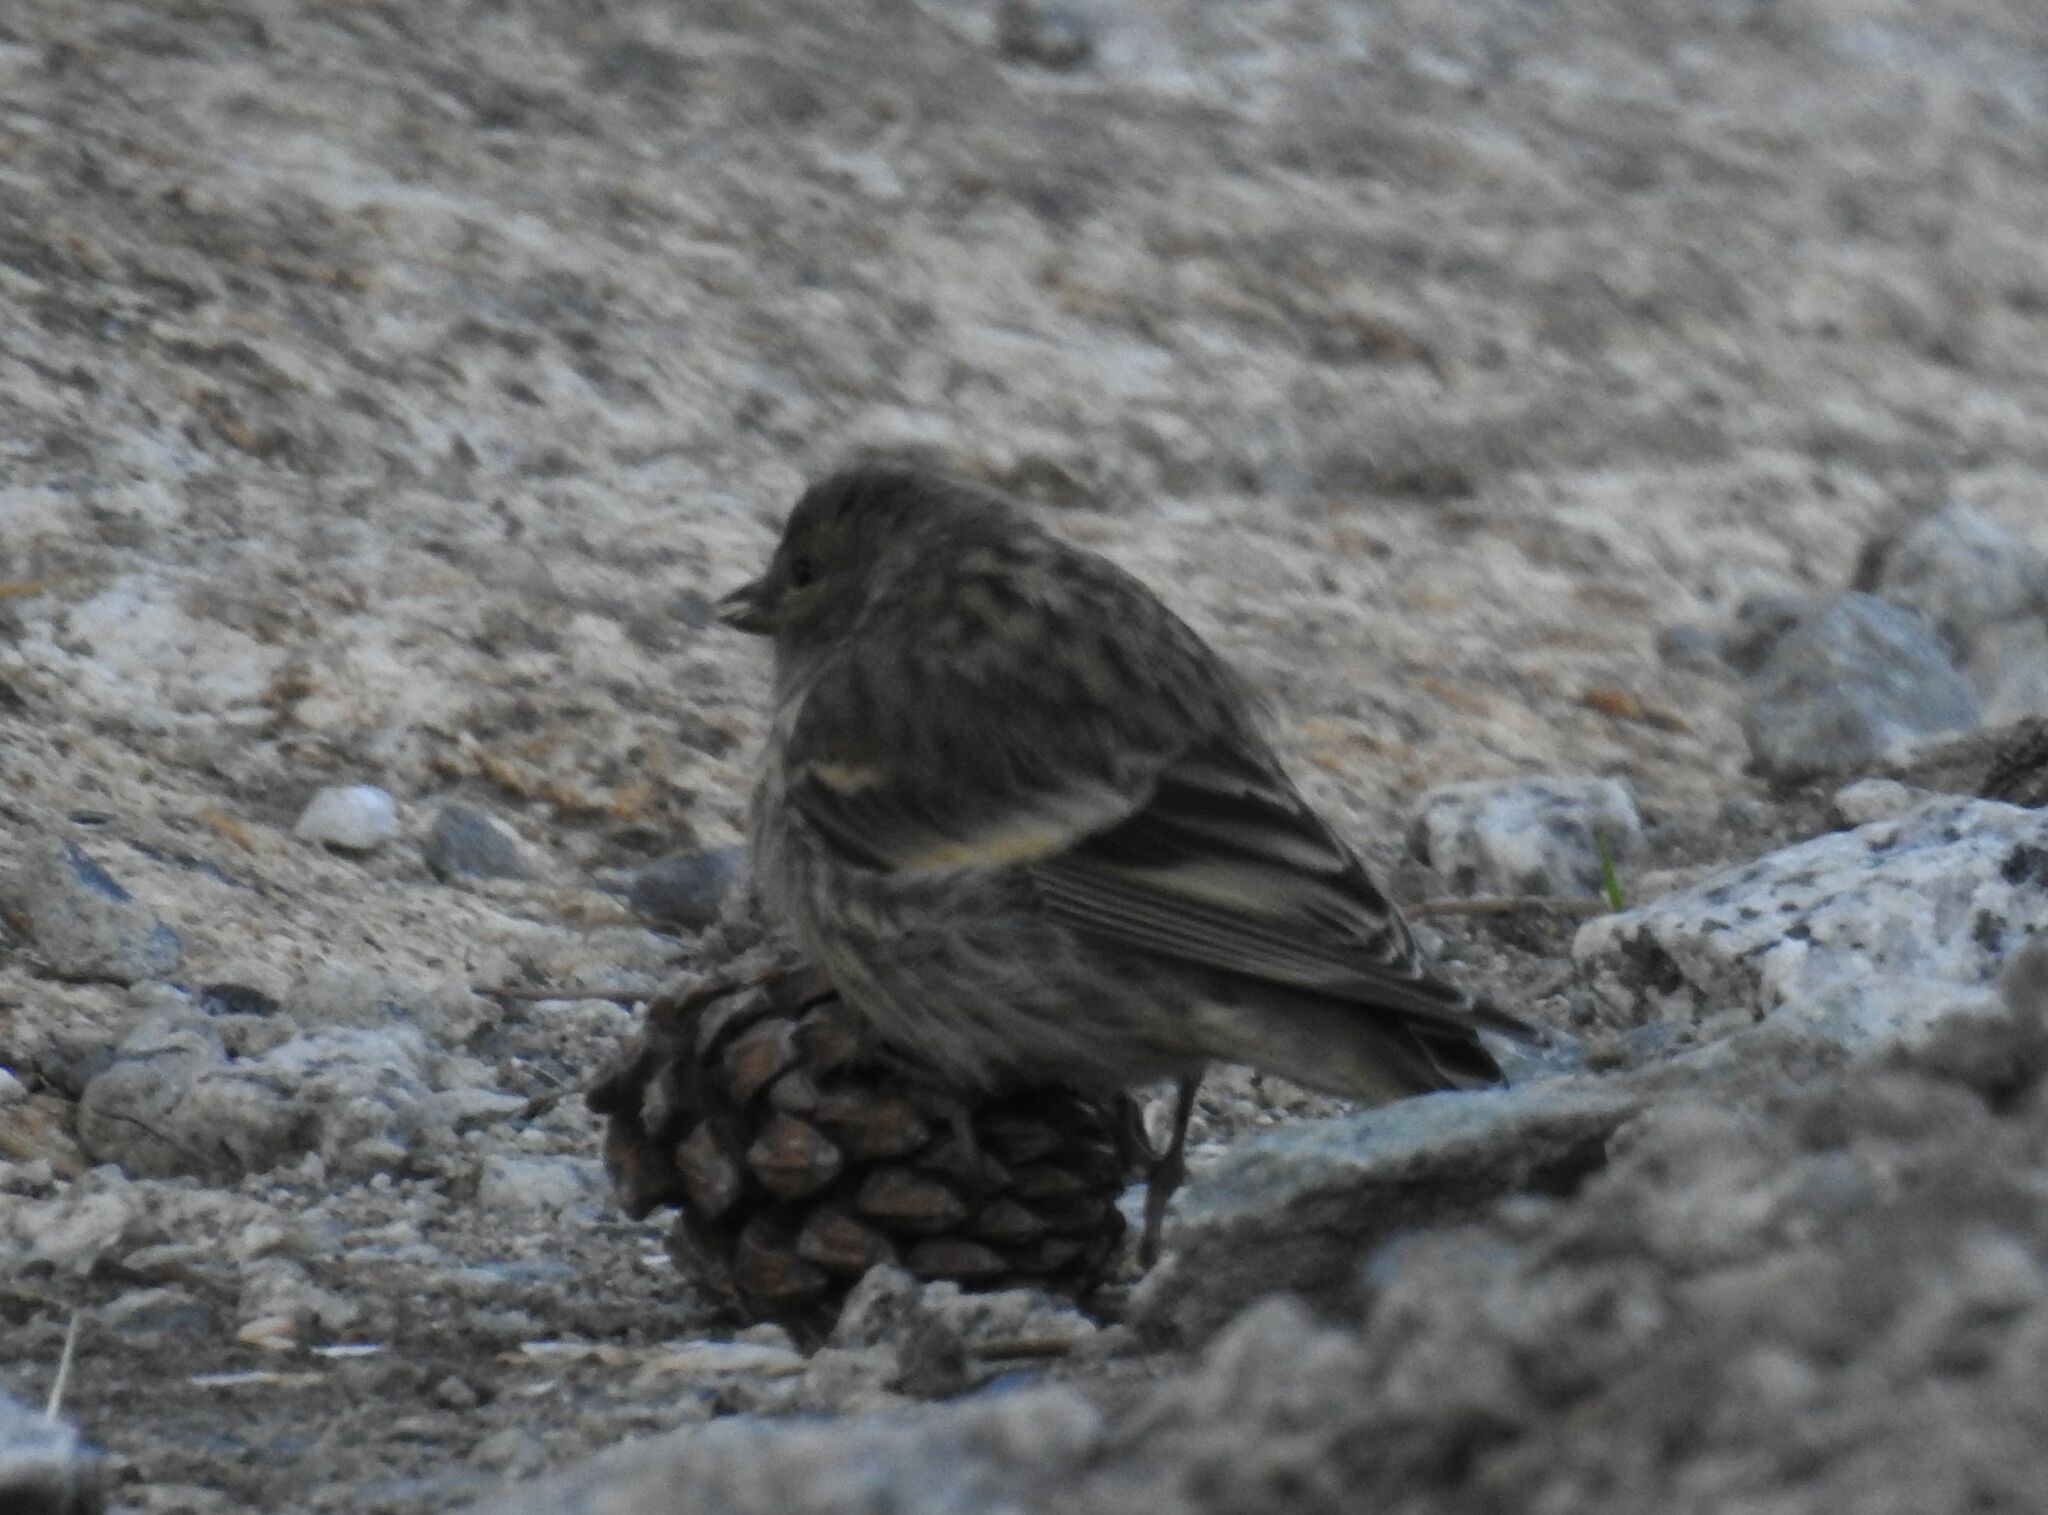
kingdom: Animalia
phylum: Chordata
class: Aves
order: Passeriformes
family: Fringillidae
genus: Carduelis
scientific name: Carduelis citrinella
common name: Citril finch
